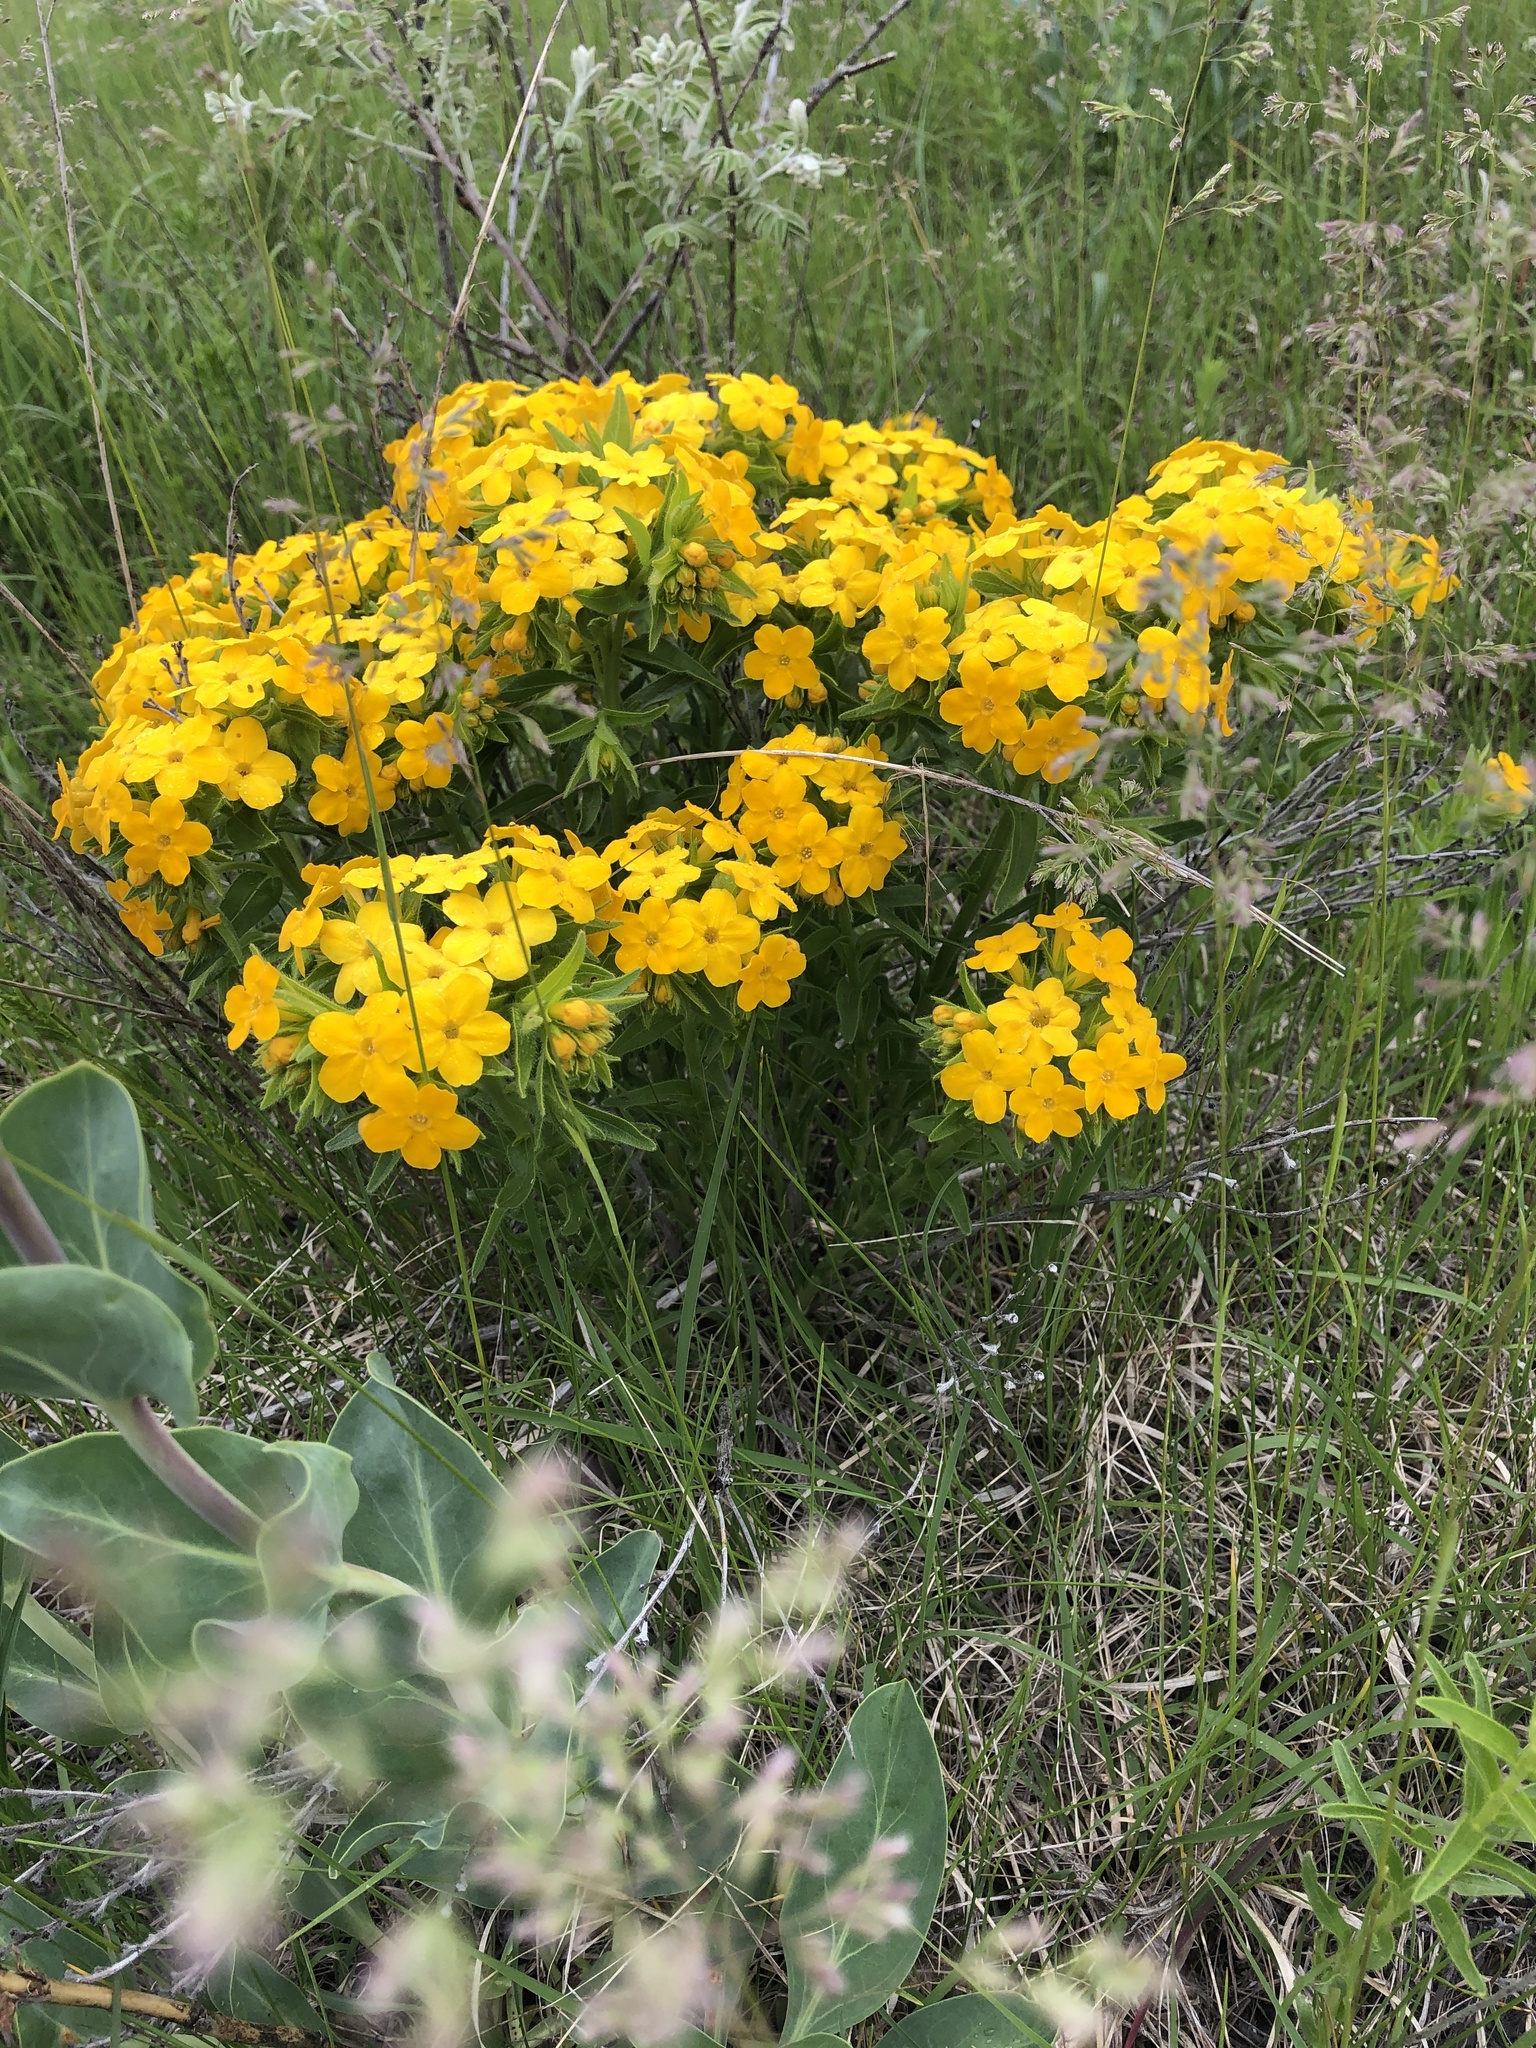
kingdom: Plantae
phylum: Tracheophyta
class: Magnoliopsida
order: Boraginales
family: Boraginaceae
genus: Lithospermum
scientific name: Lithospermum caroliniense
